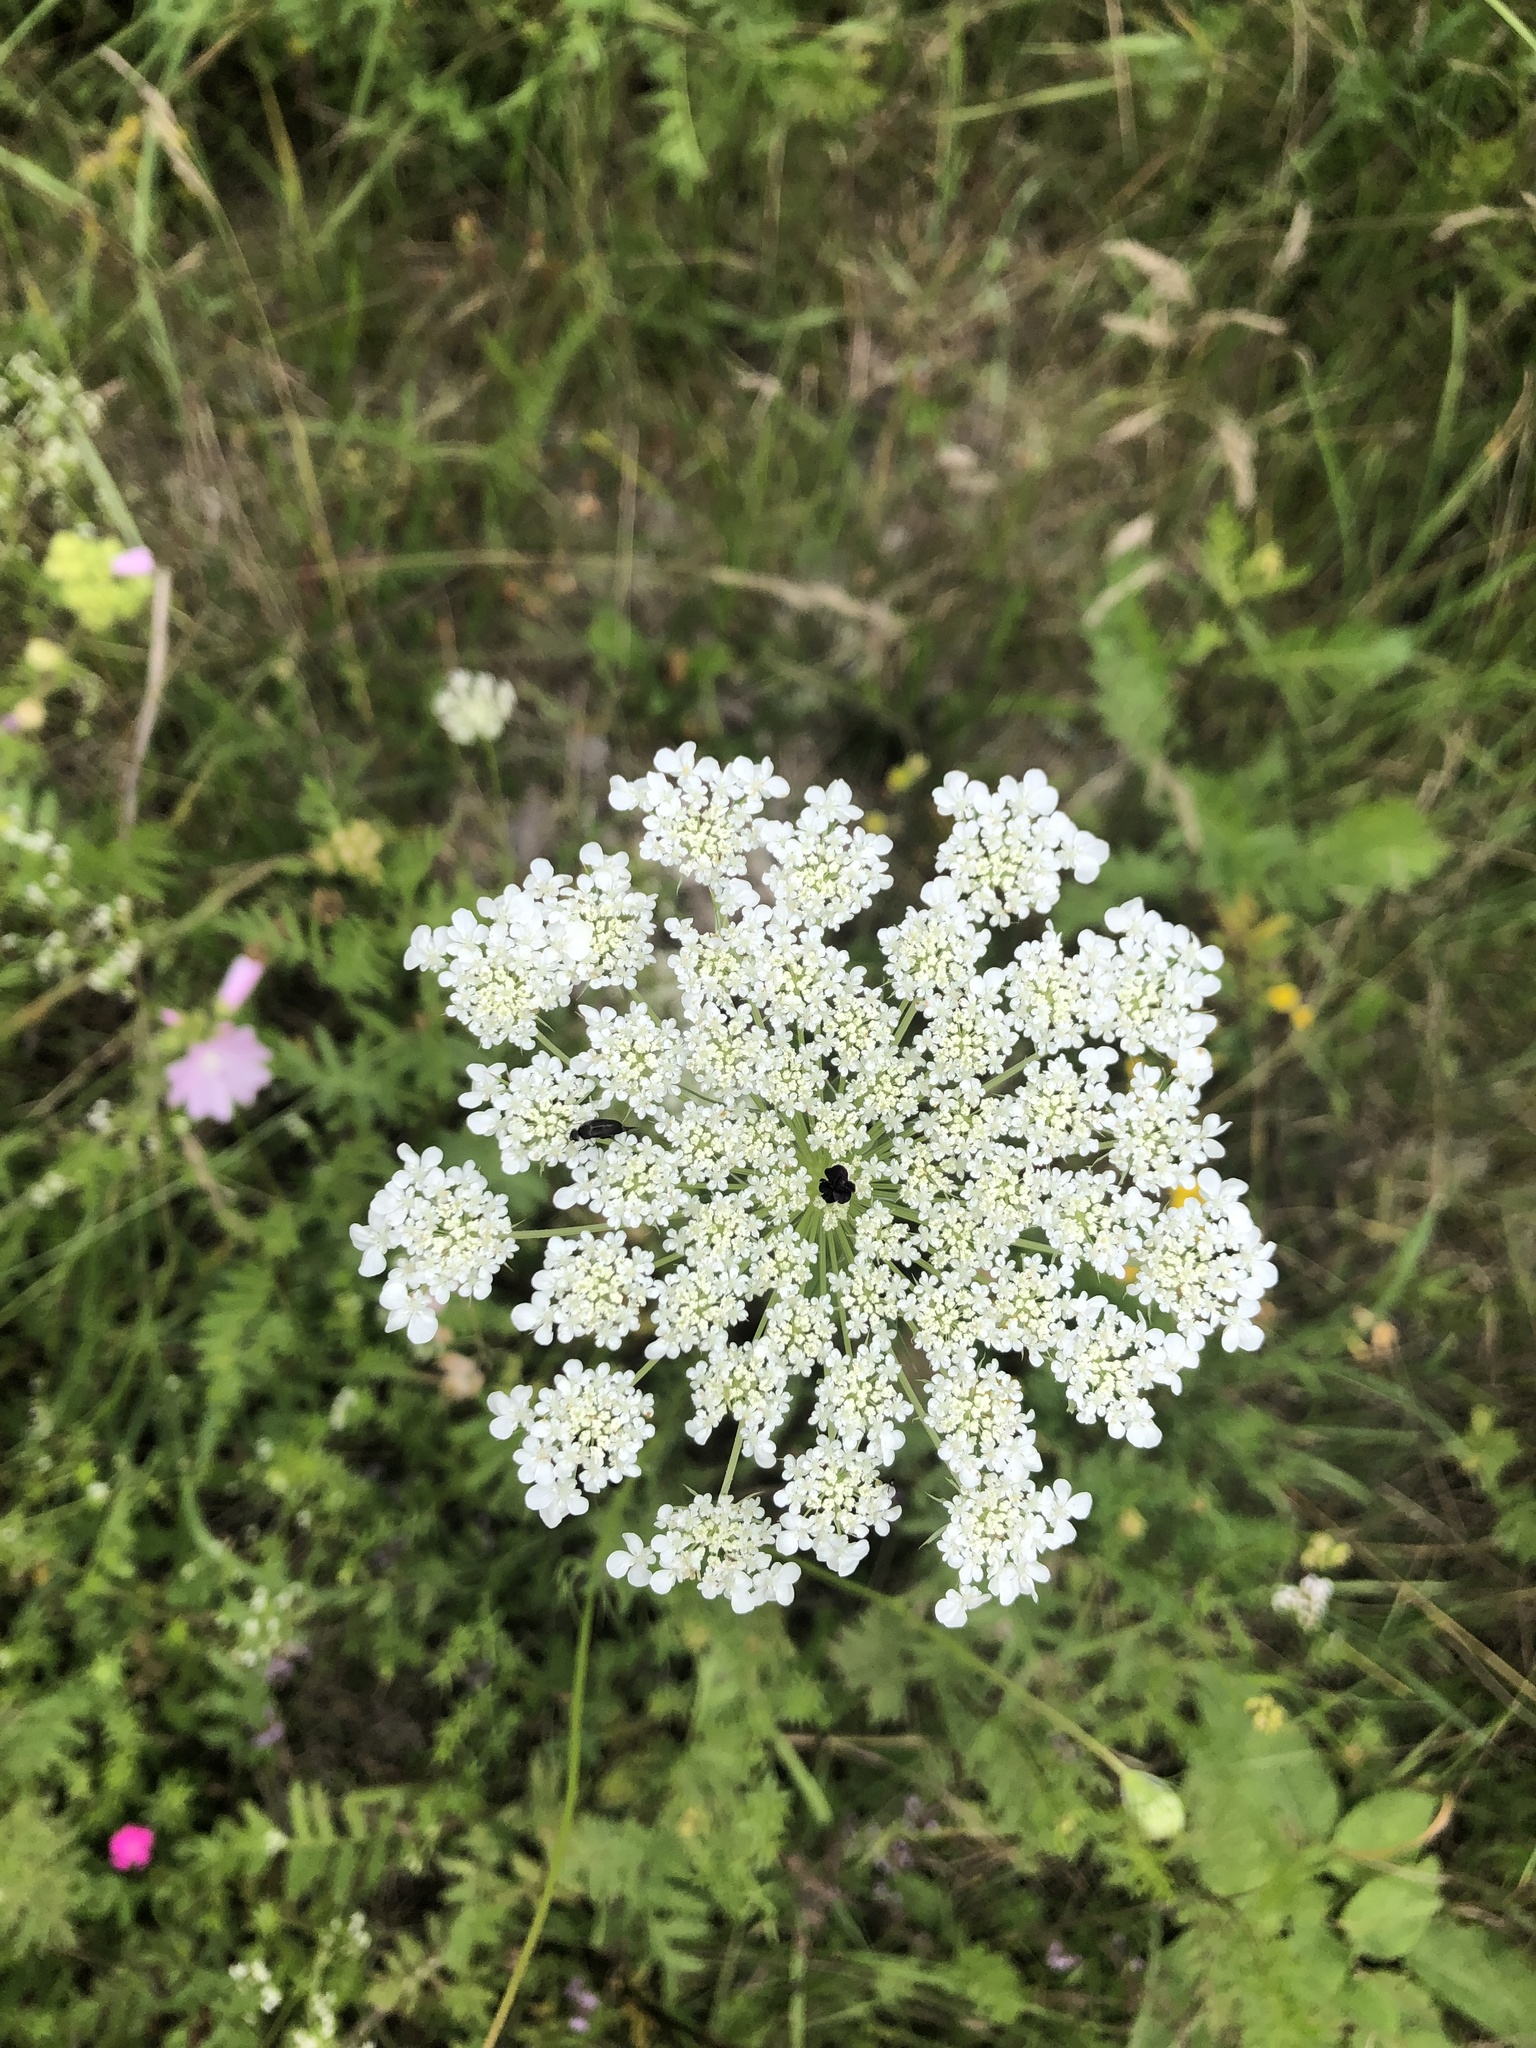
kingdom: Plantae
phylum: Tracheophyta
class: Magnoliopsida
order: Apiales
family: Apiaceae
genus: Daucus
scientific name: Daucus carota
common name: Wild carrot
